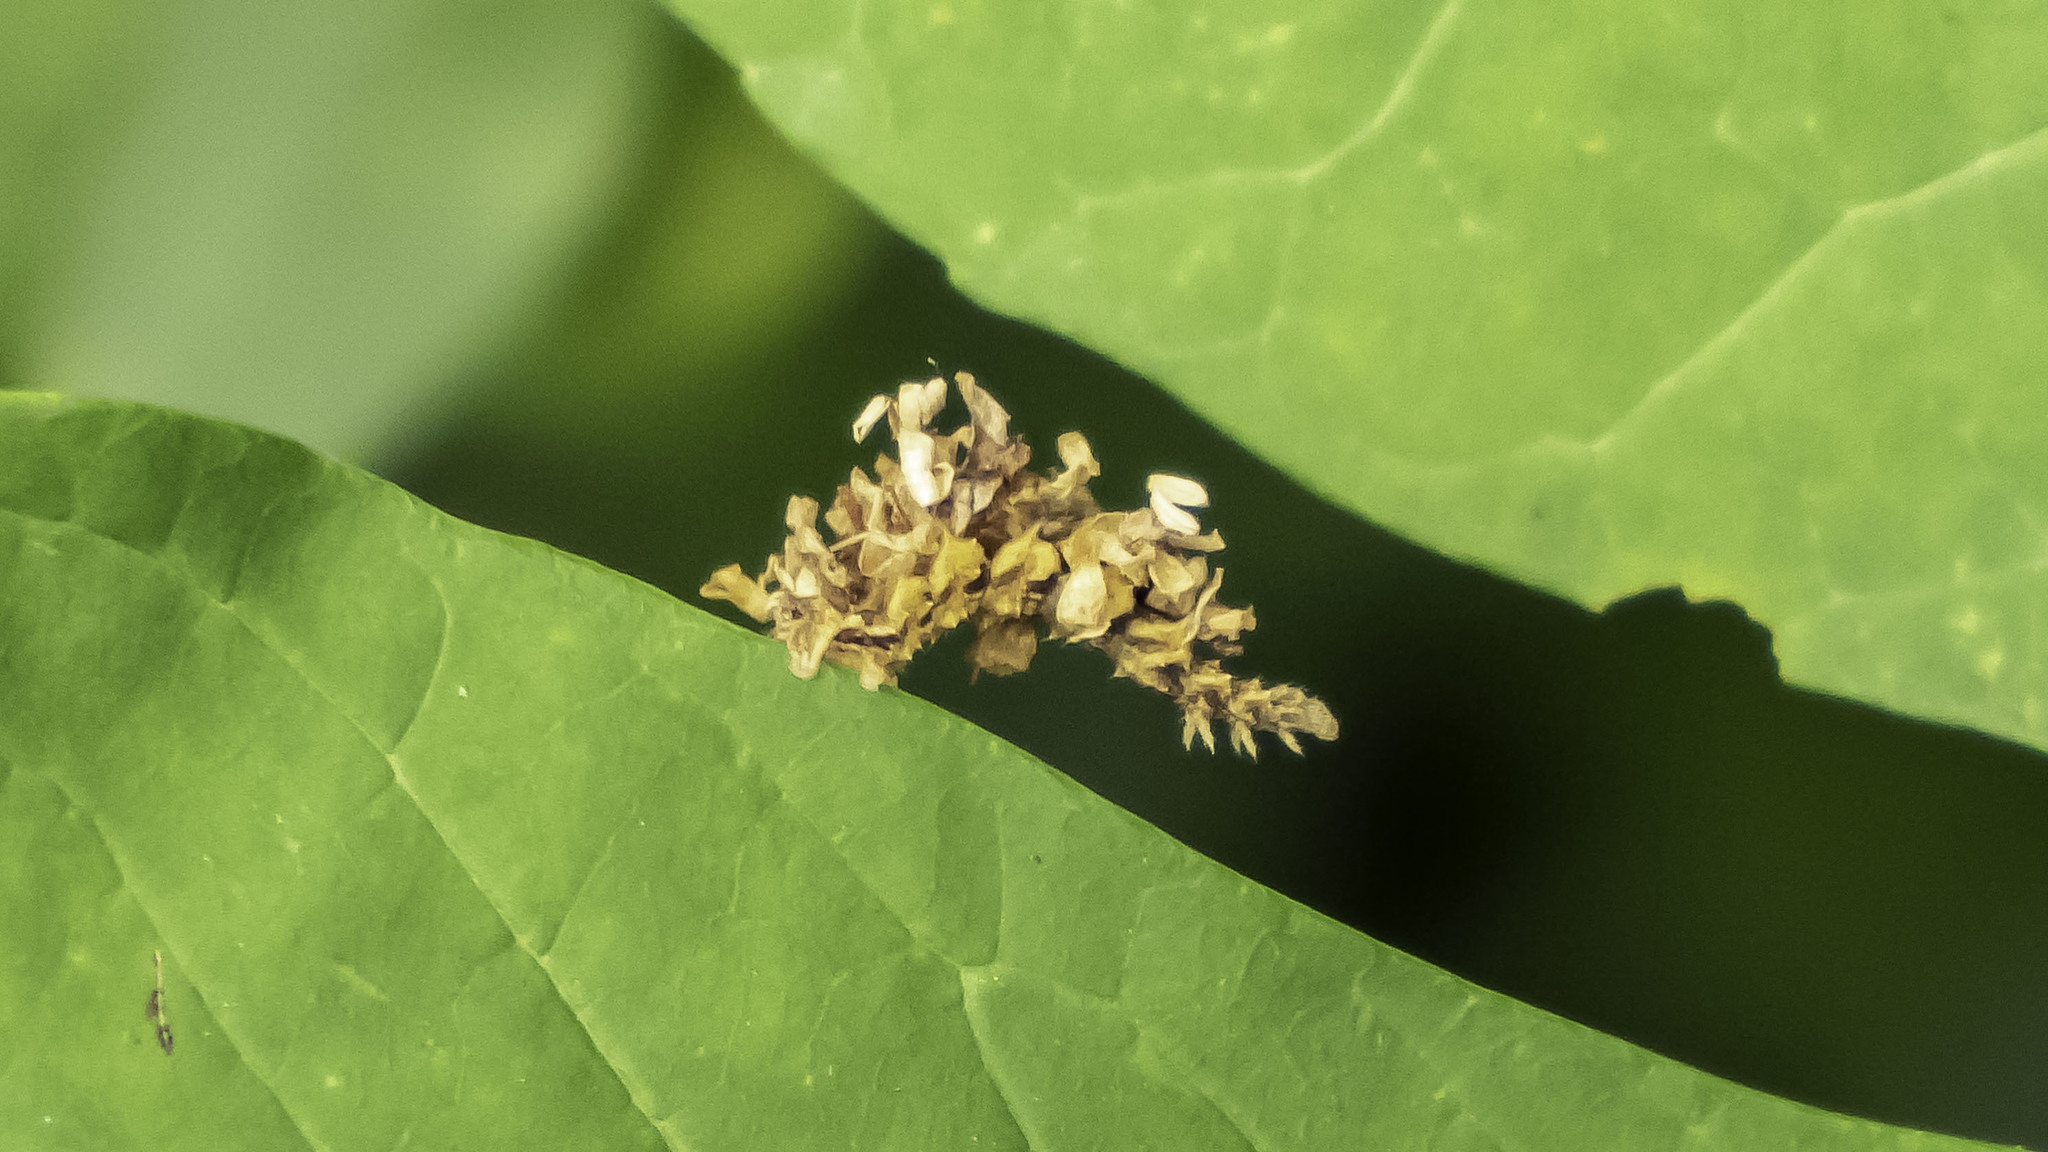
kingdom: Animalia
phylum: Arthropoda
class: Insecta
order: Lepidoptera
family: Geometridae
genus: Synchlora
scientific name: Synchlora aerata
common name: Wavy-lined emerald
